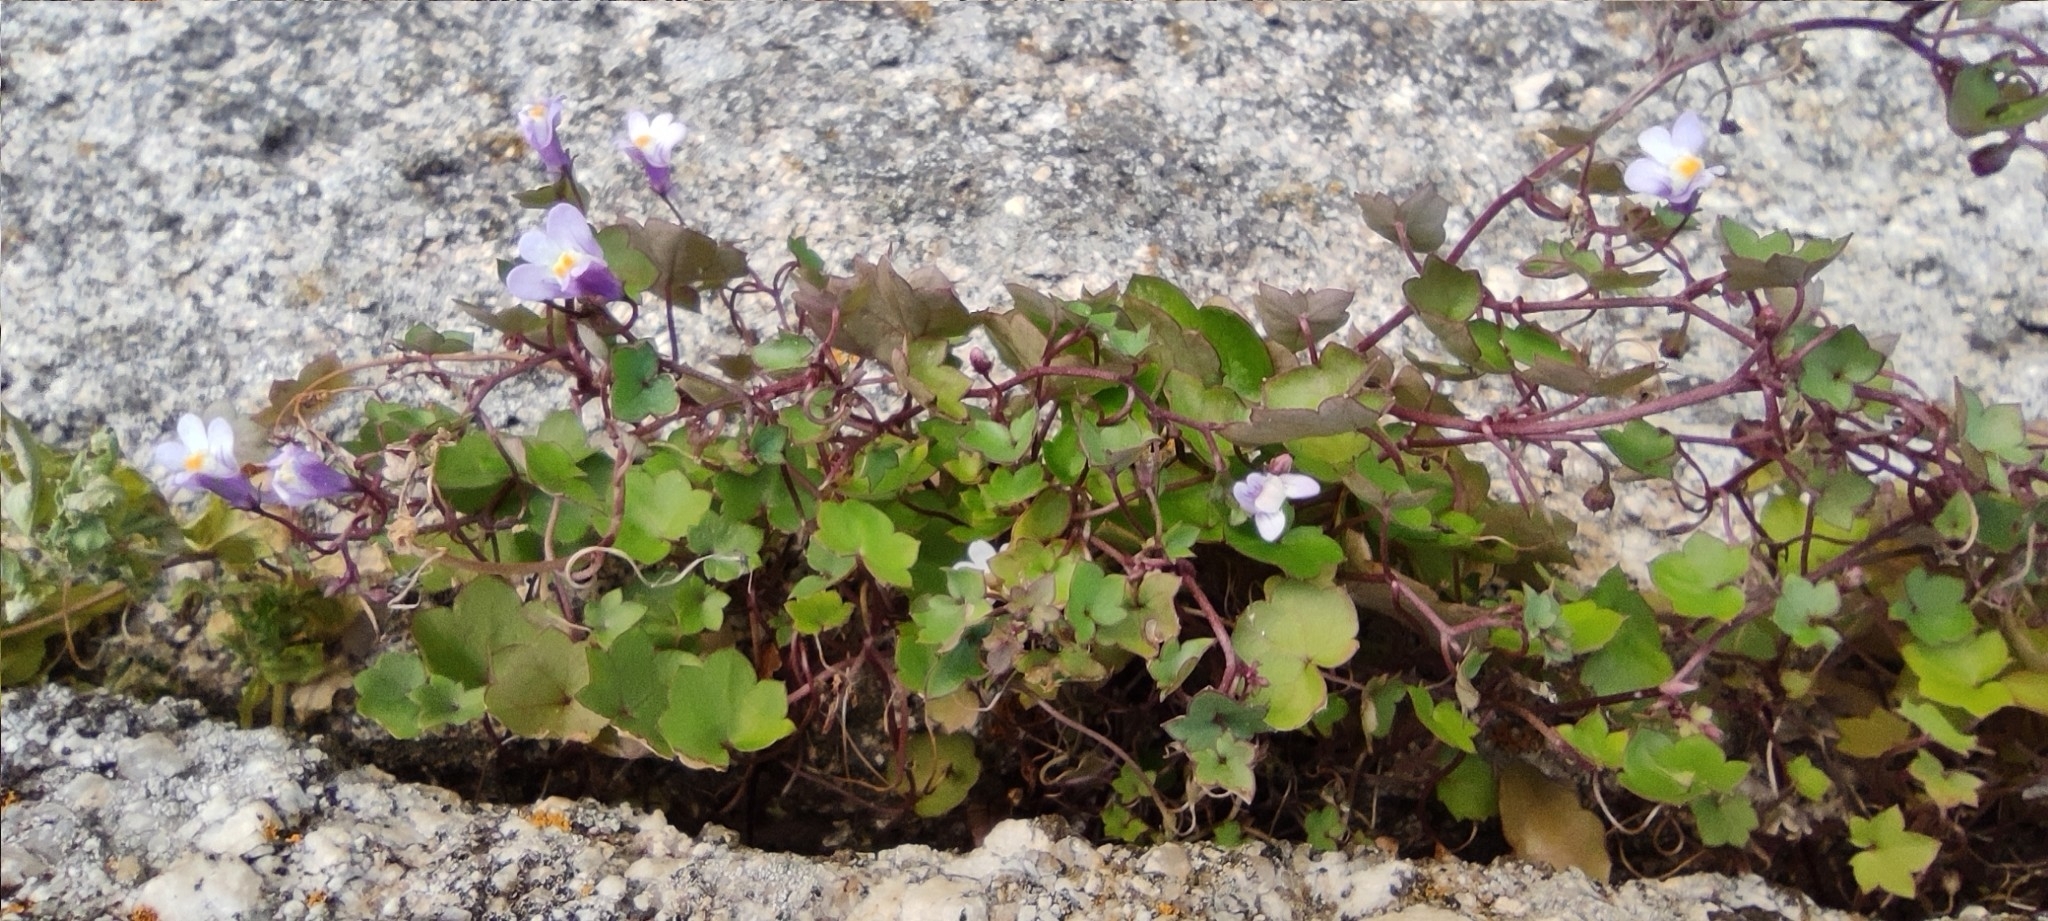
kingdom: Plantae
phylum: Tracheophyta
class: Magnoliopsida
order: Lamiales
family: Plantaginaceae
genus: Cymbalaria
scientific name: Cymbalaria muralis
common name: Ivy-leaved toadflax
